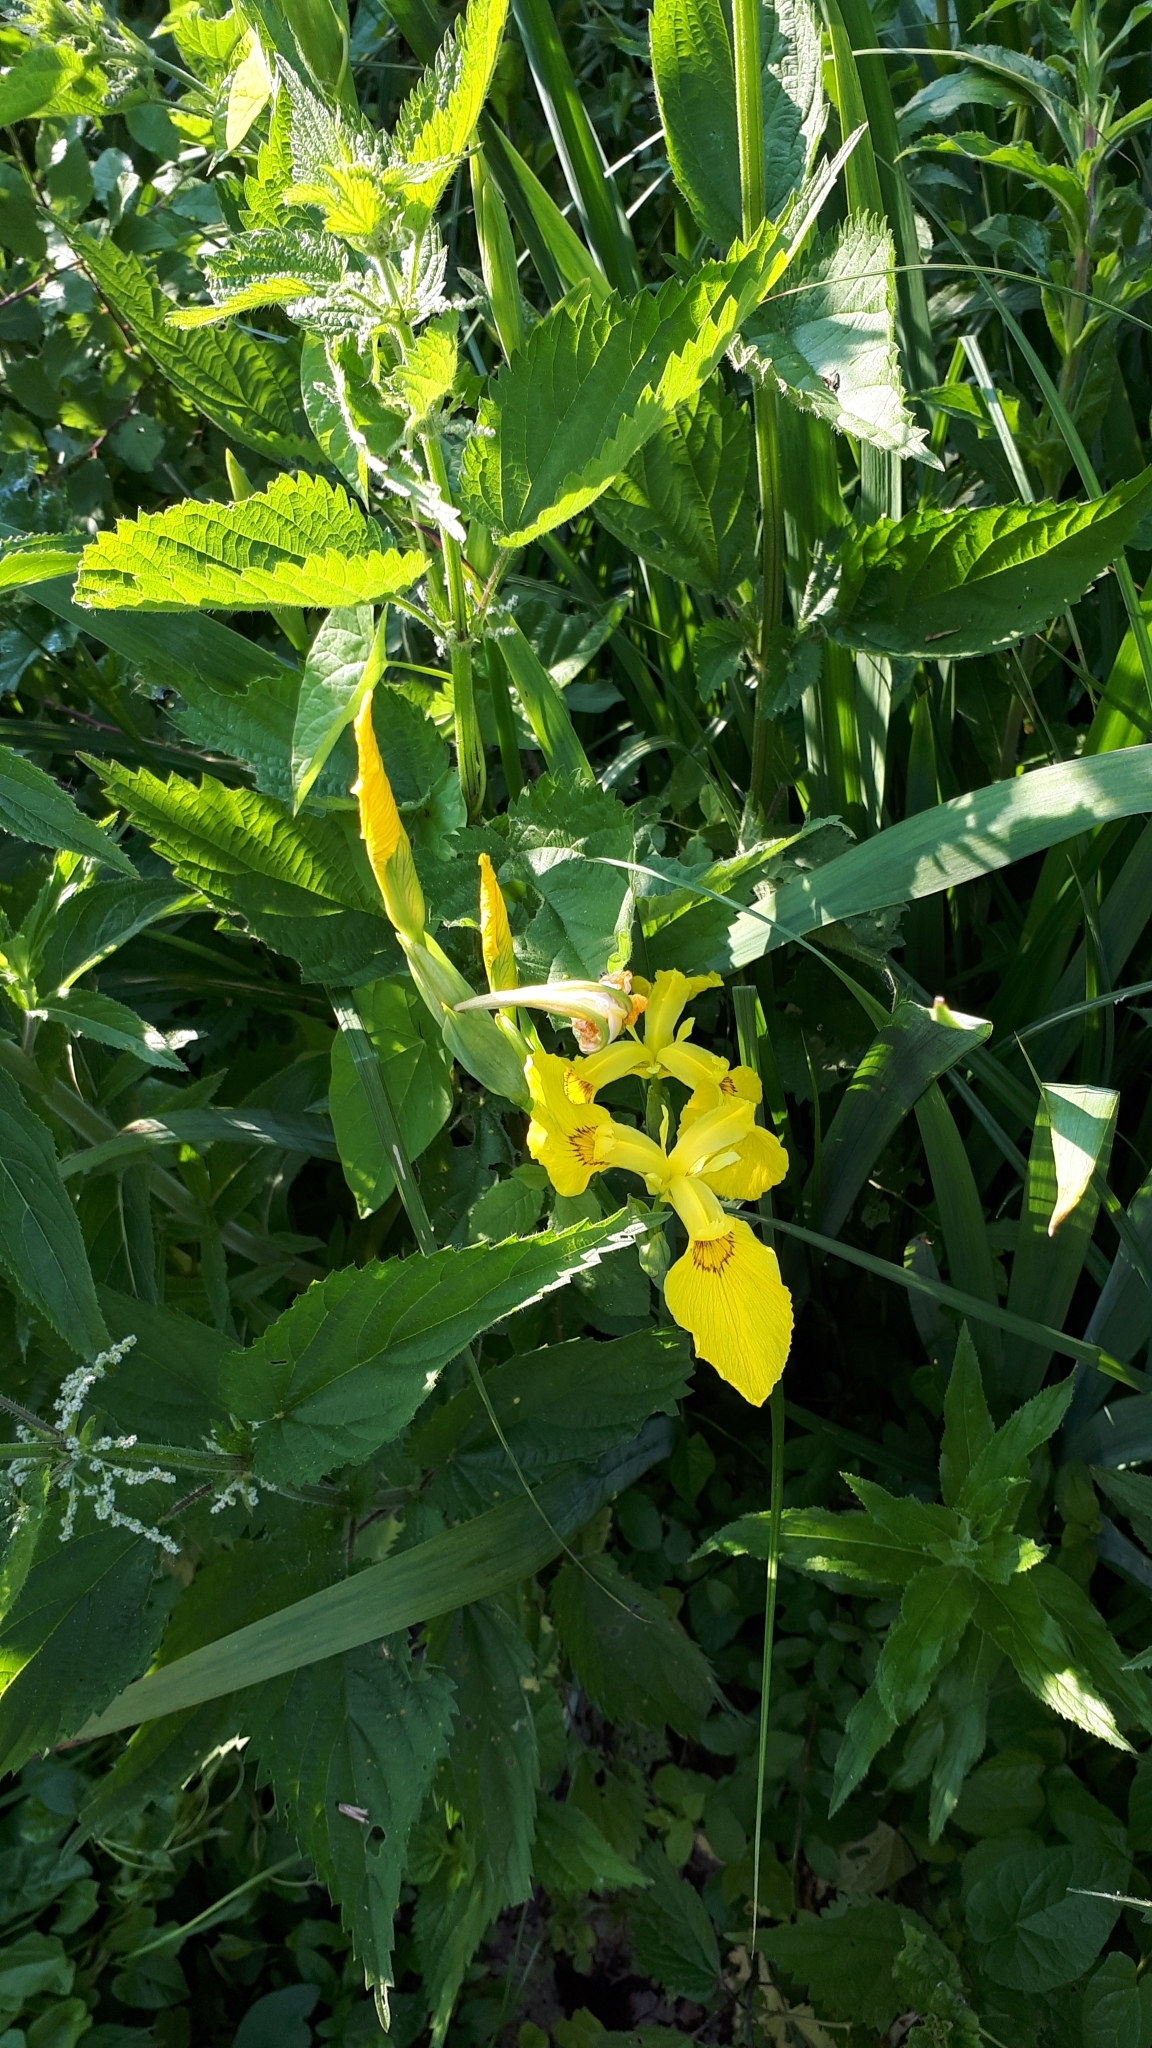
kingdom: Plantae
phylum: Tracheophyta
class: Liliopsida
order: Asparagales
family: Iridaceae
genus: Iris
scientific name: Iris pseudacorus
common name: Yellow flag
